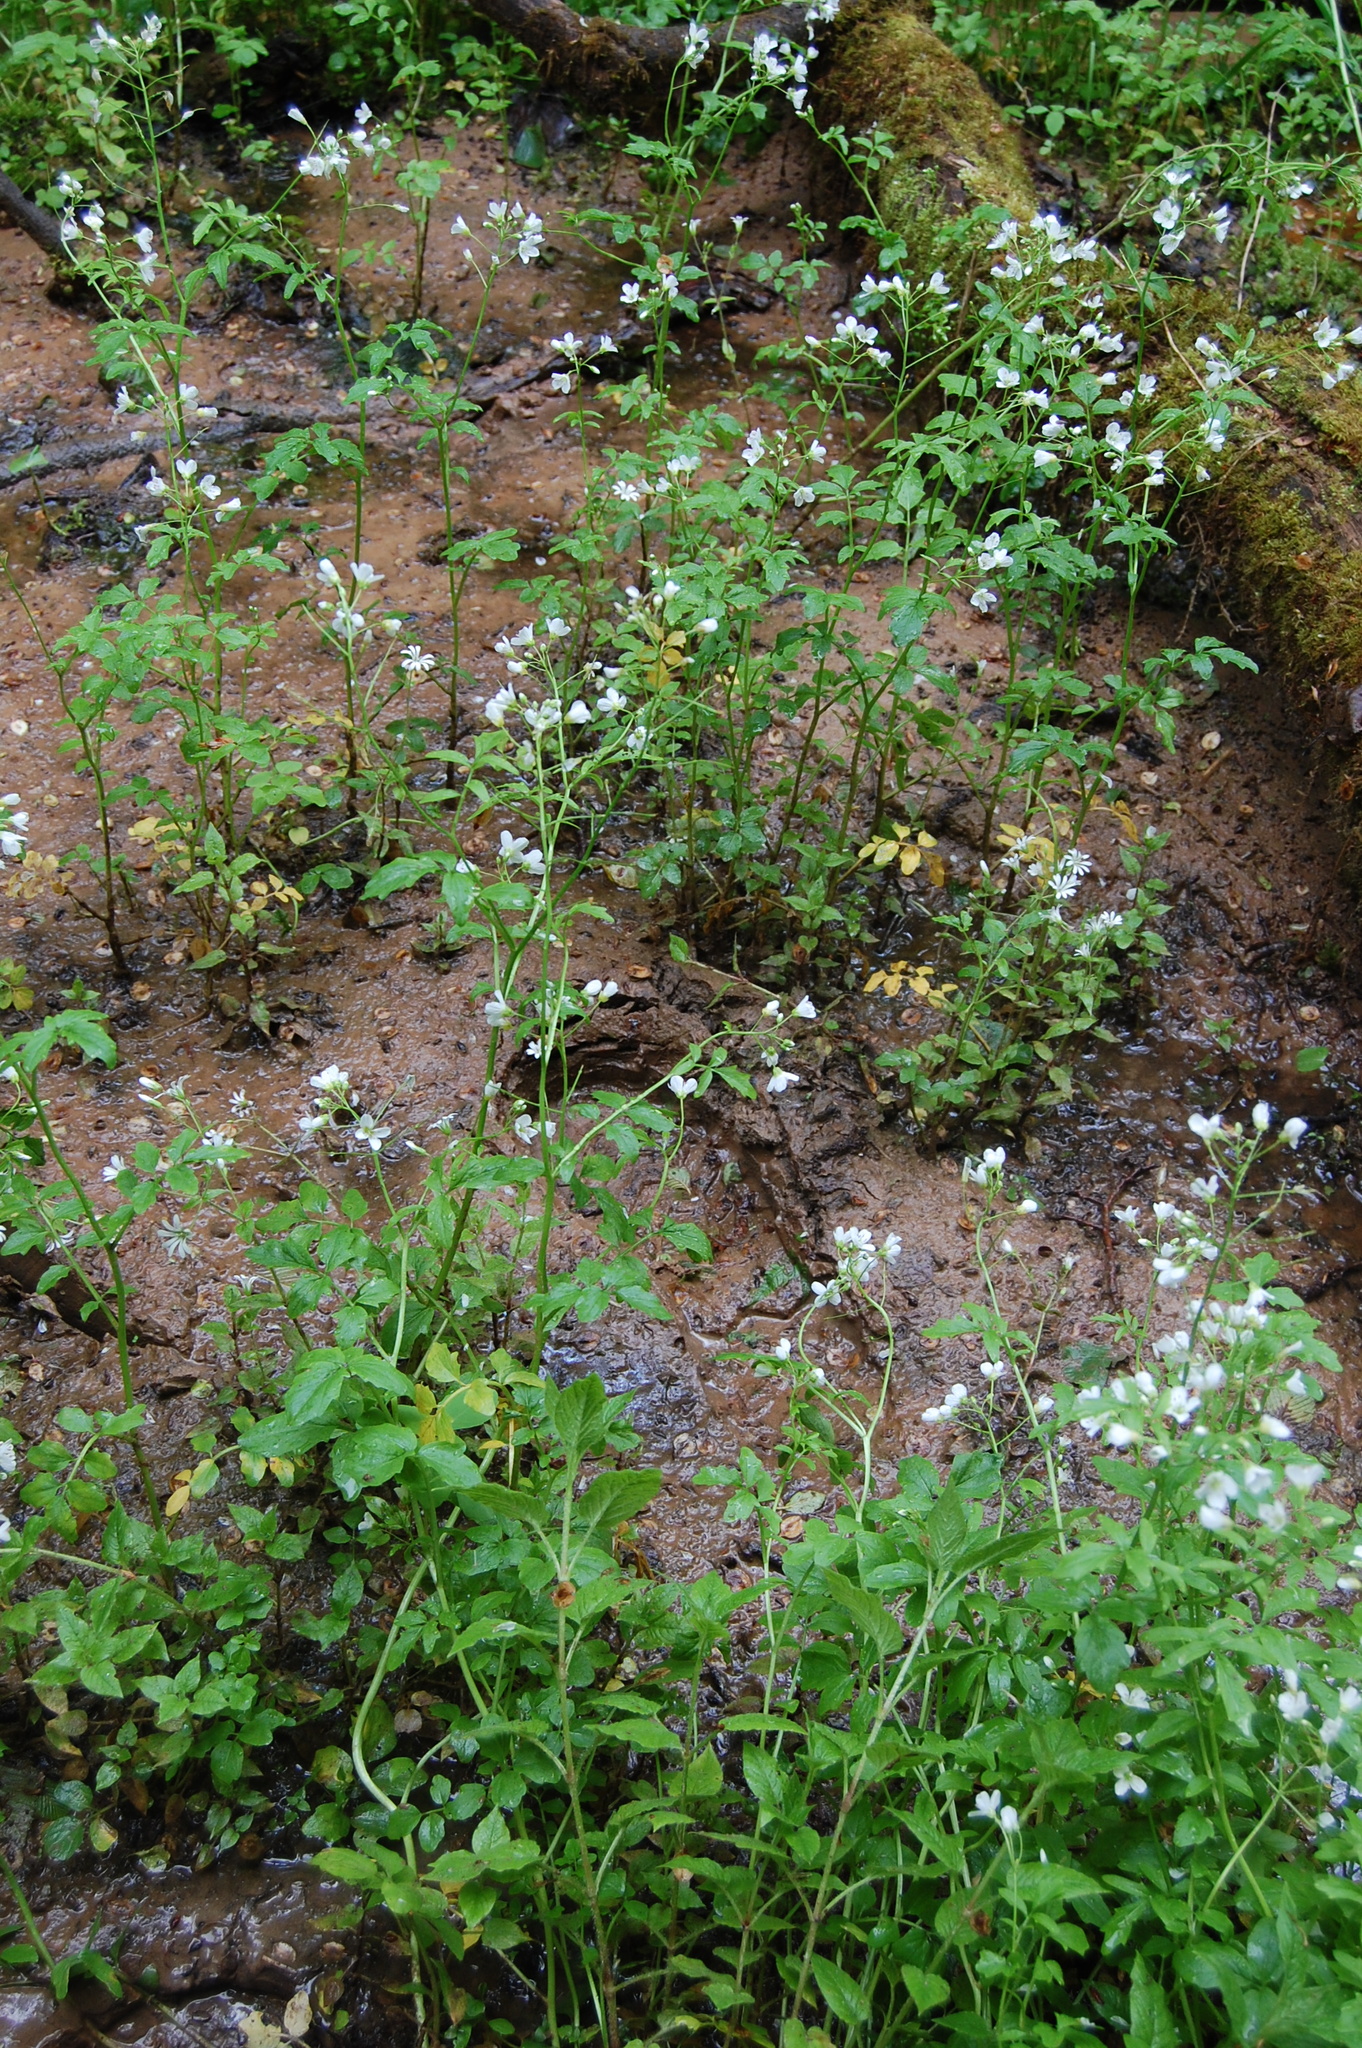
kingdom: Plantae
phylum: Tracheophyta
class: Magnoliopsida
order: Brassicales
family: Brassicaceae
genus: Cardamine
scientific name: Cardamine amara
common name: Large bitter-cress
